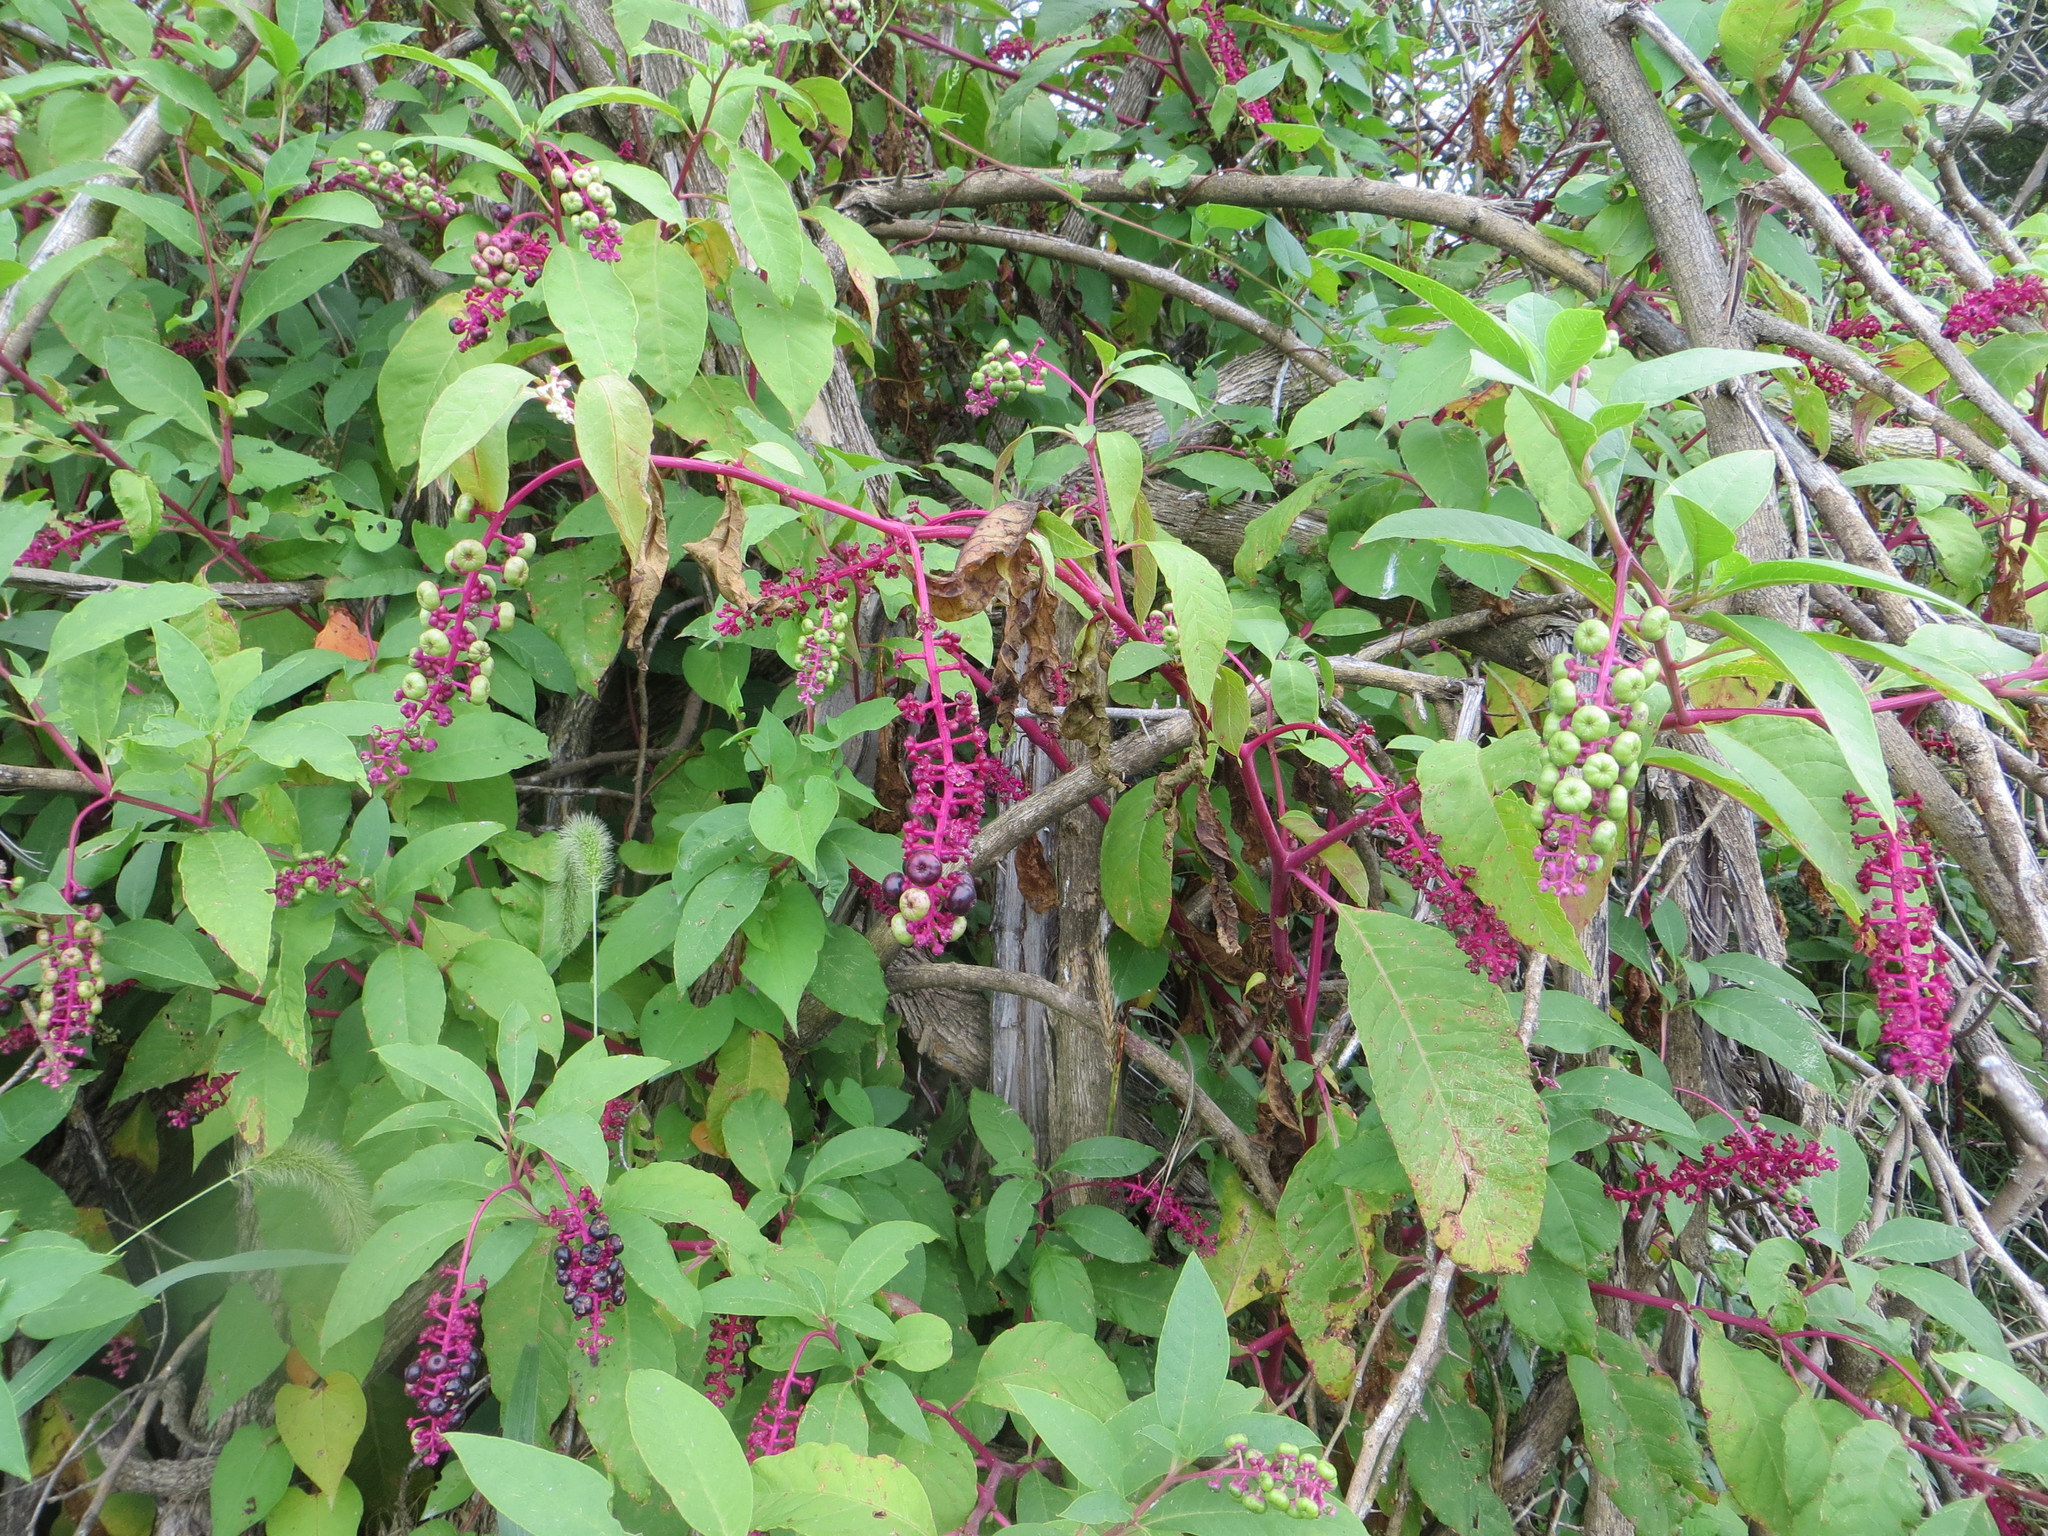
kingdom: Plantae
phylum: Tracheophyta
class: Magnoliopsida
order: Caryophyllales
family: Phytolaccaceae
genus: Phytolacca
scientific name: Phytolacca americana
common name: American pokeweed
